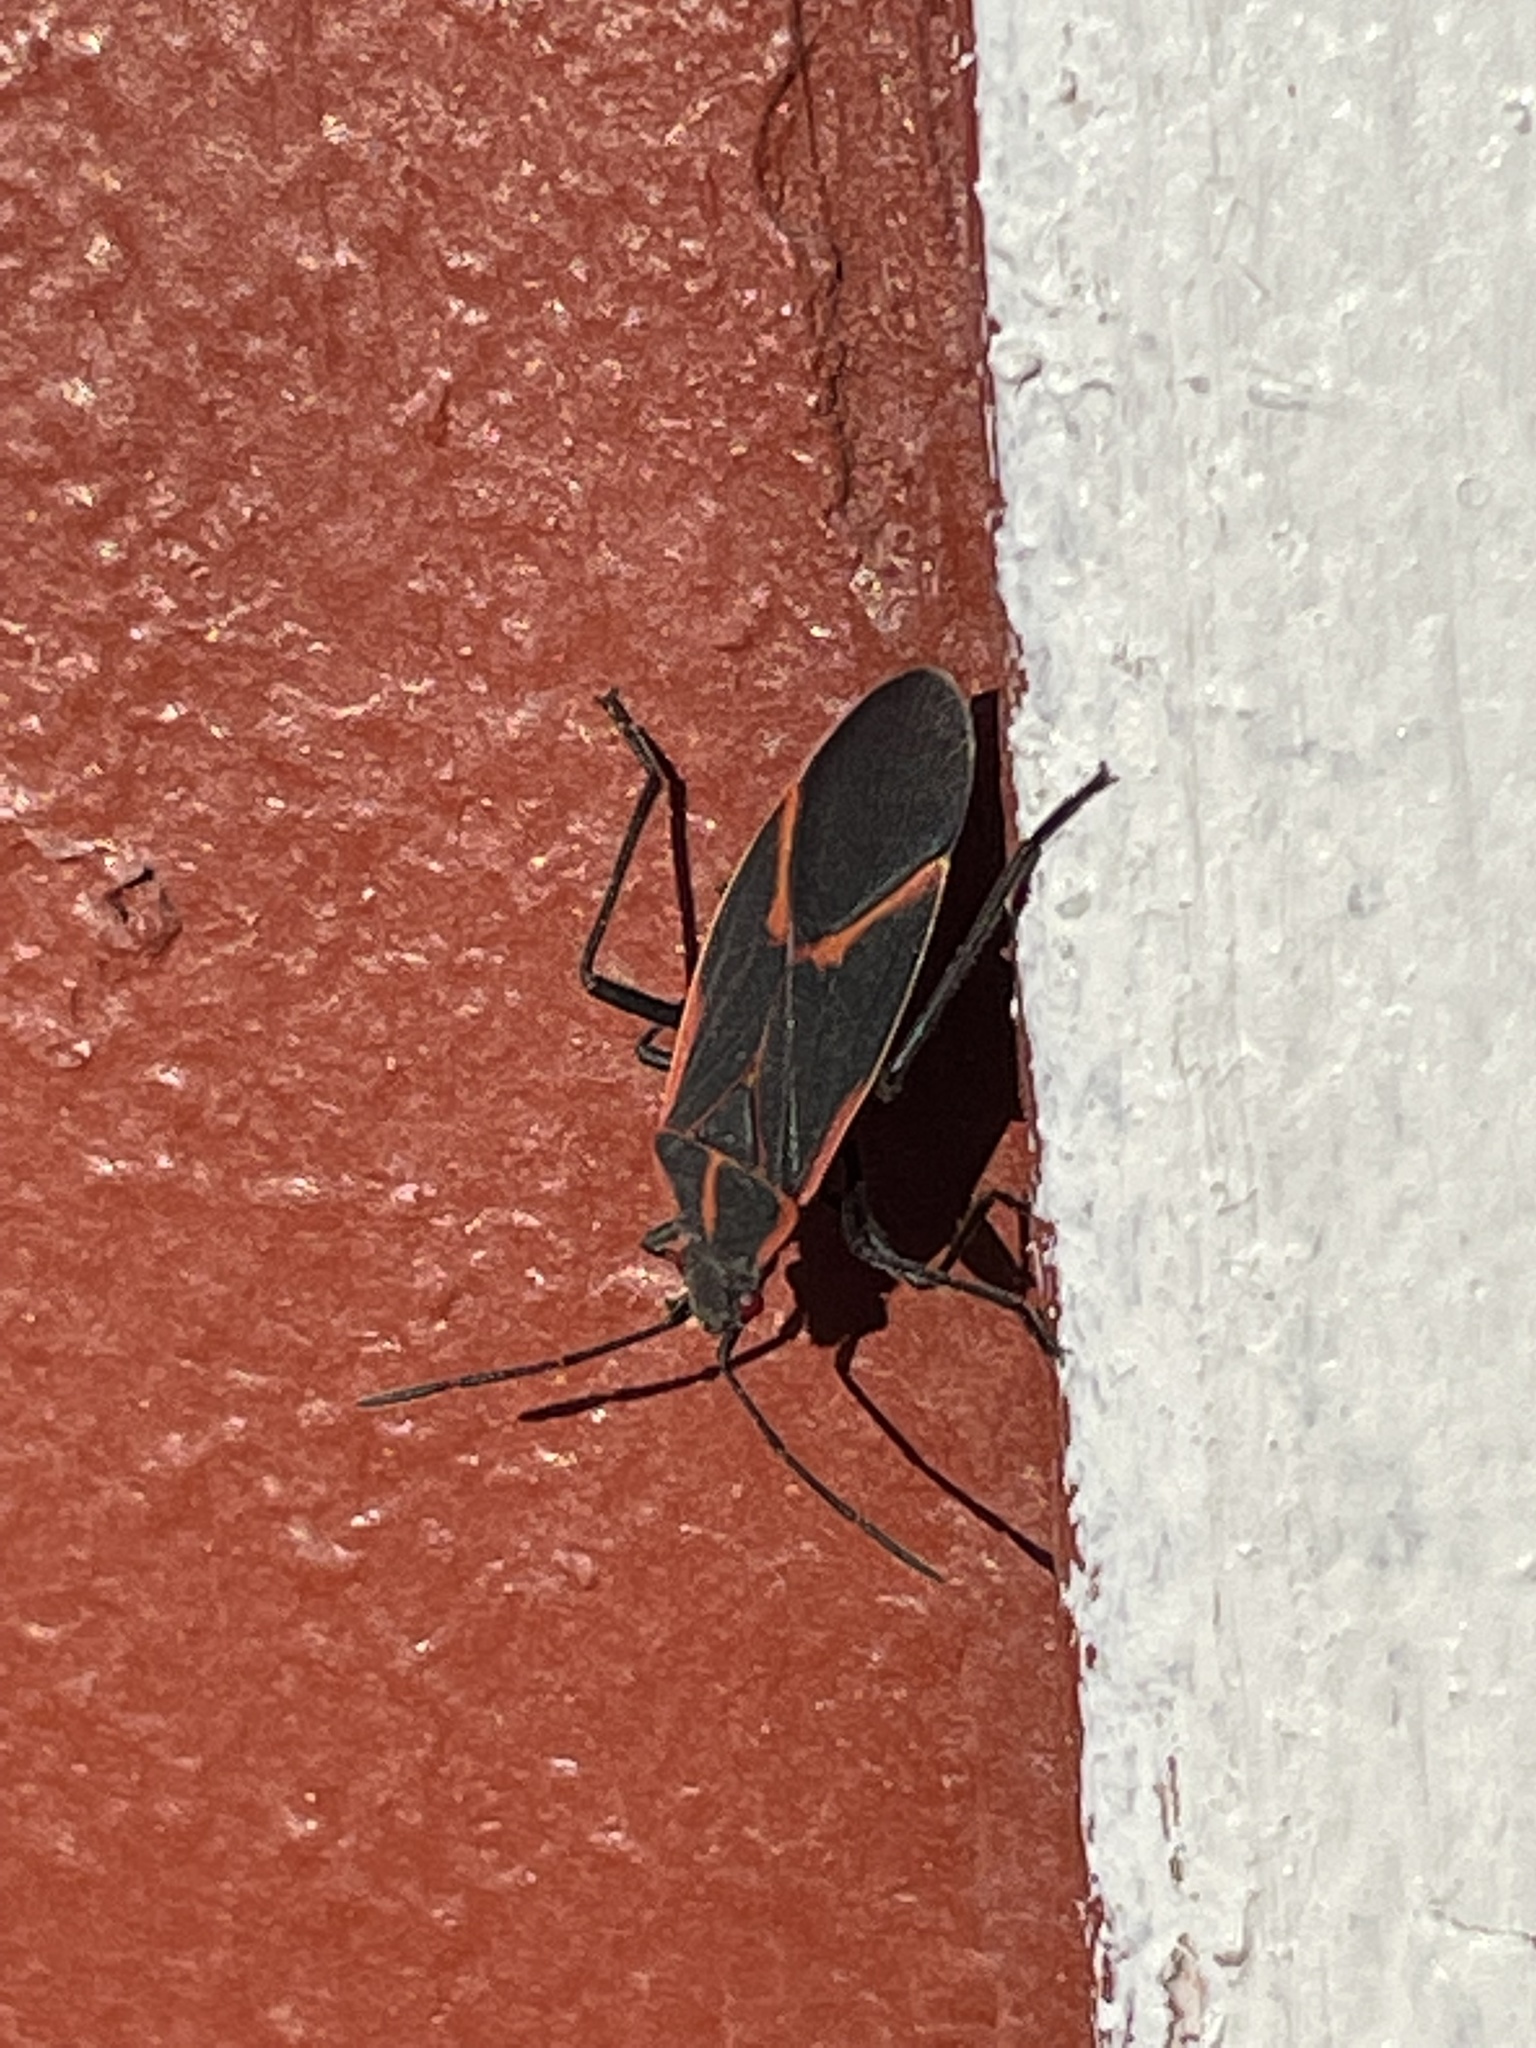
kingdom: Animalia
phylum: Arthropoda
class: Insecta
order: Hemiptera
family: Rhopalidae
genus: Boisea
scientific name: Boisea trivittata
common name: Boxelder bug
